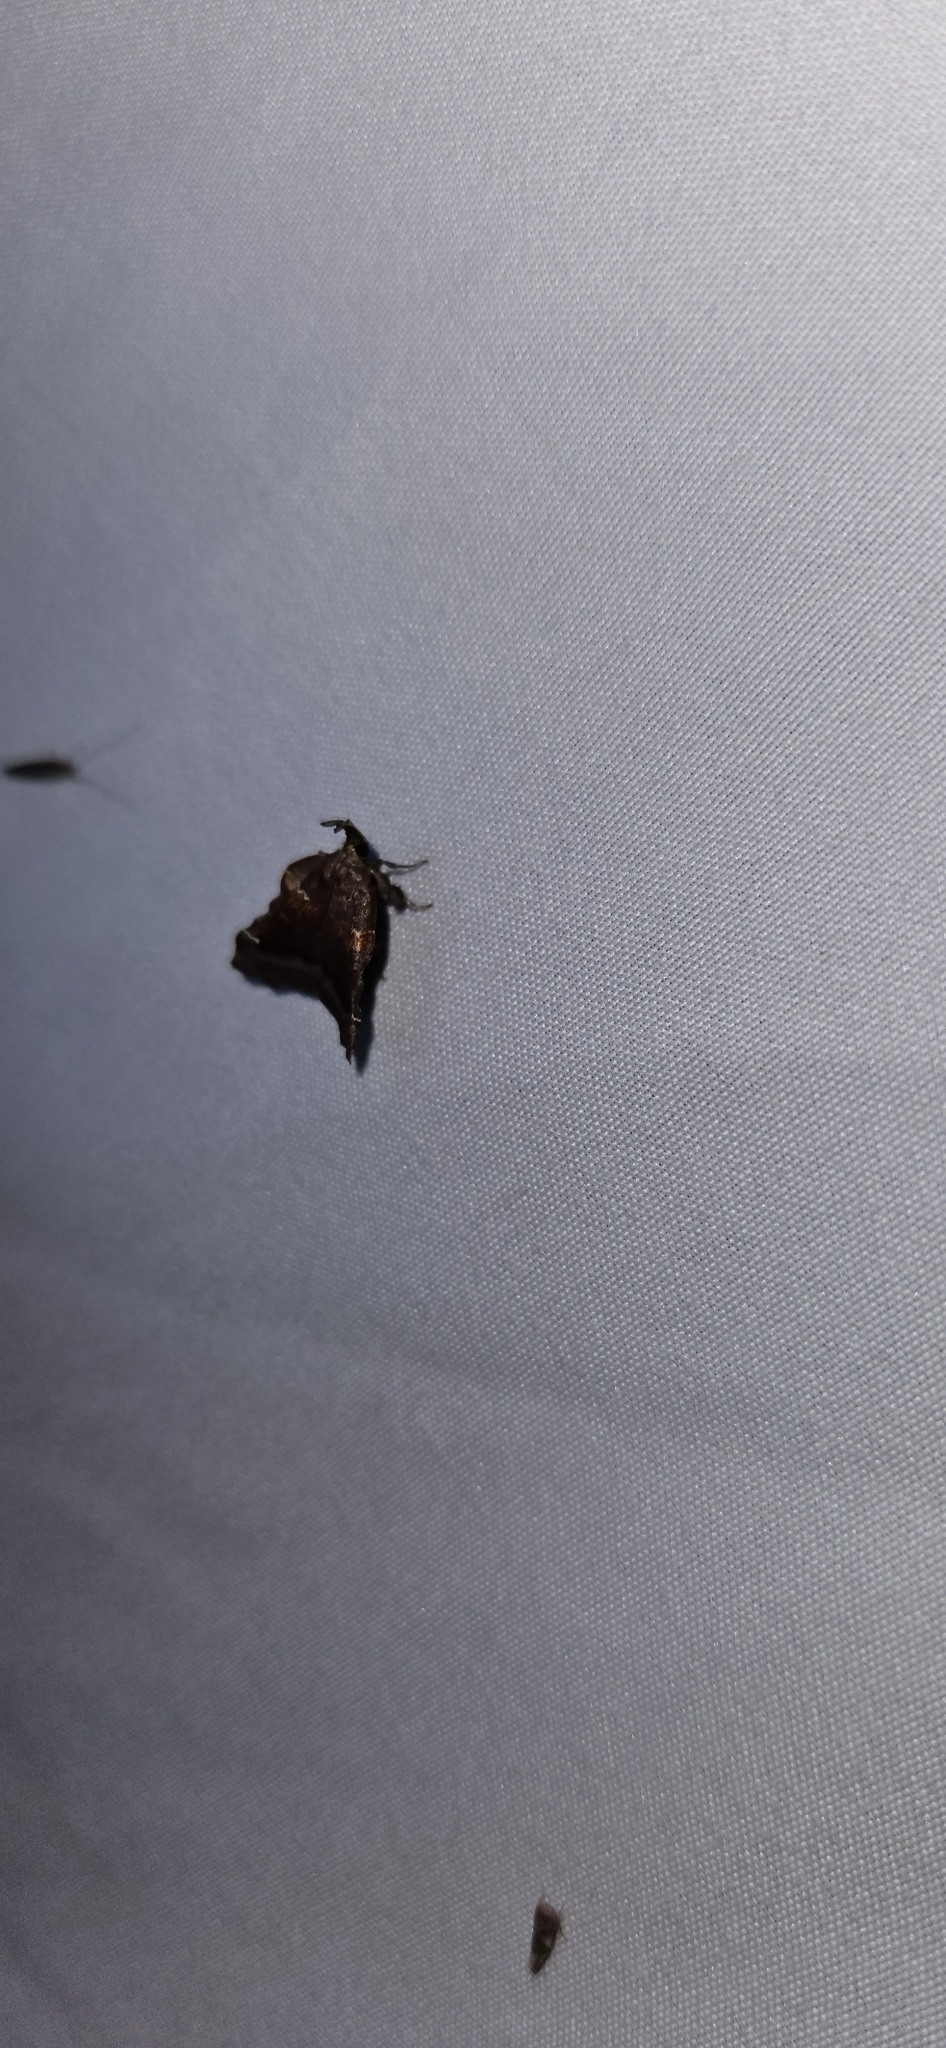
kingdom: Animalia
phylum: Arthropoda
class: Insecta
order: Lepidoptera
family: Pyralidae
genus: Clydonopteron
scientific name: Clydonopteron sacculana
